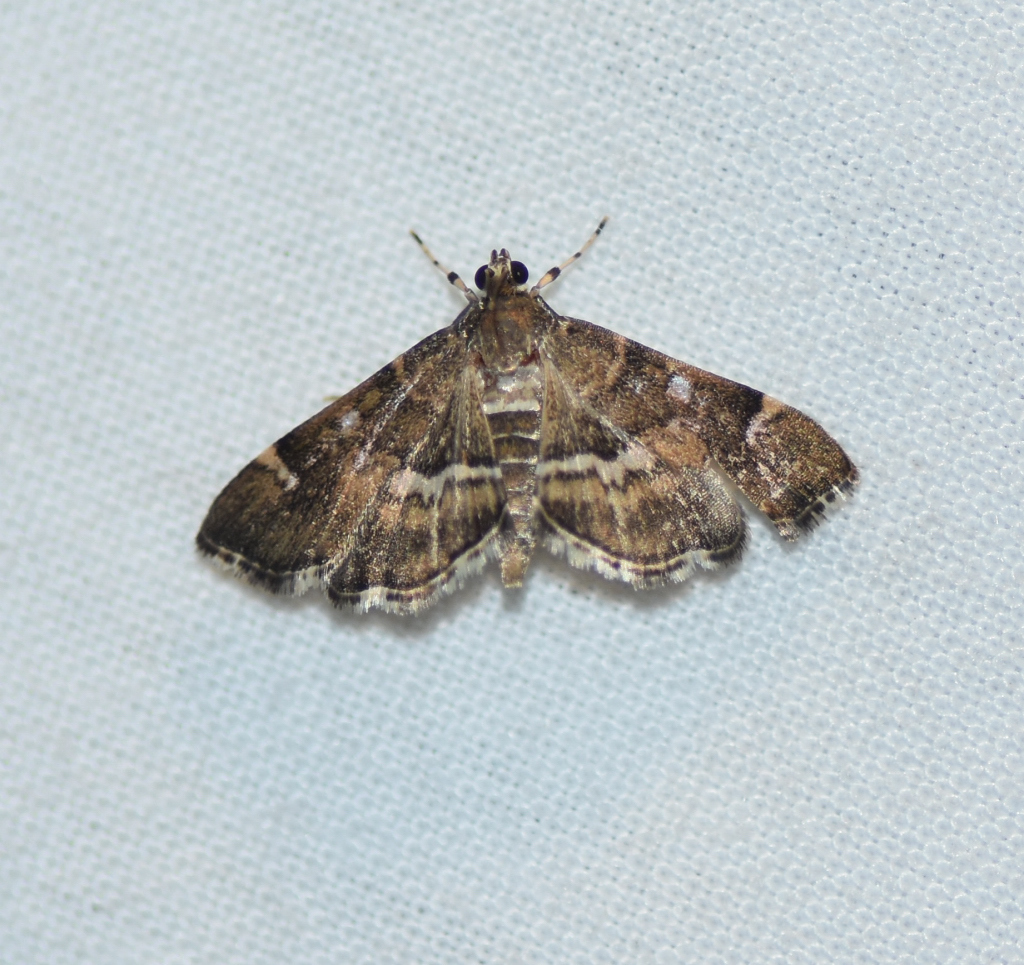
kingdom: Animalia
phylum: Arthropoda
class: Insecta
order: Lepidoptera
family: Crambidae
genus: Hymenia
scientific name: Hymenia perspectalis
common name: Spotted beet webworm
